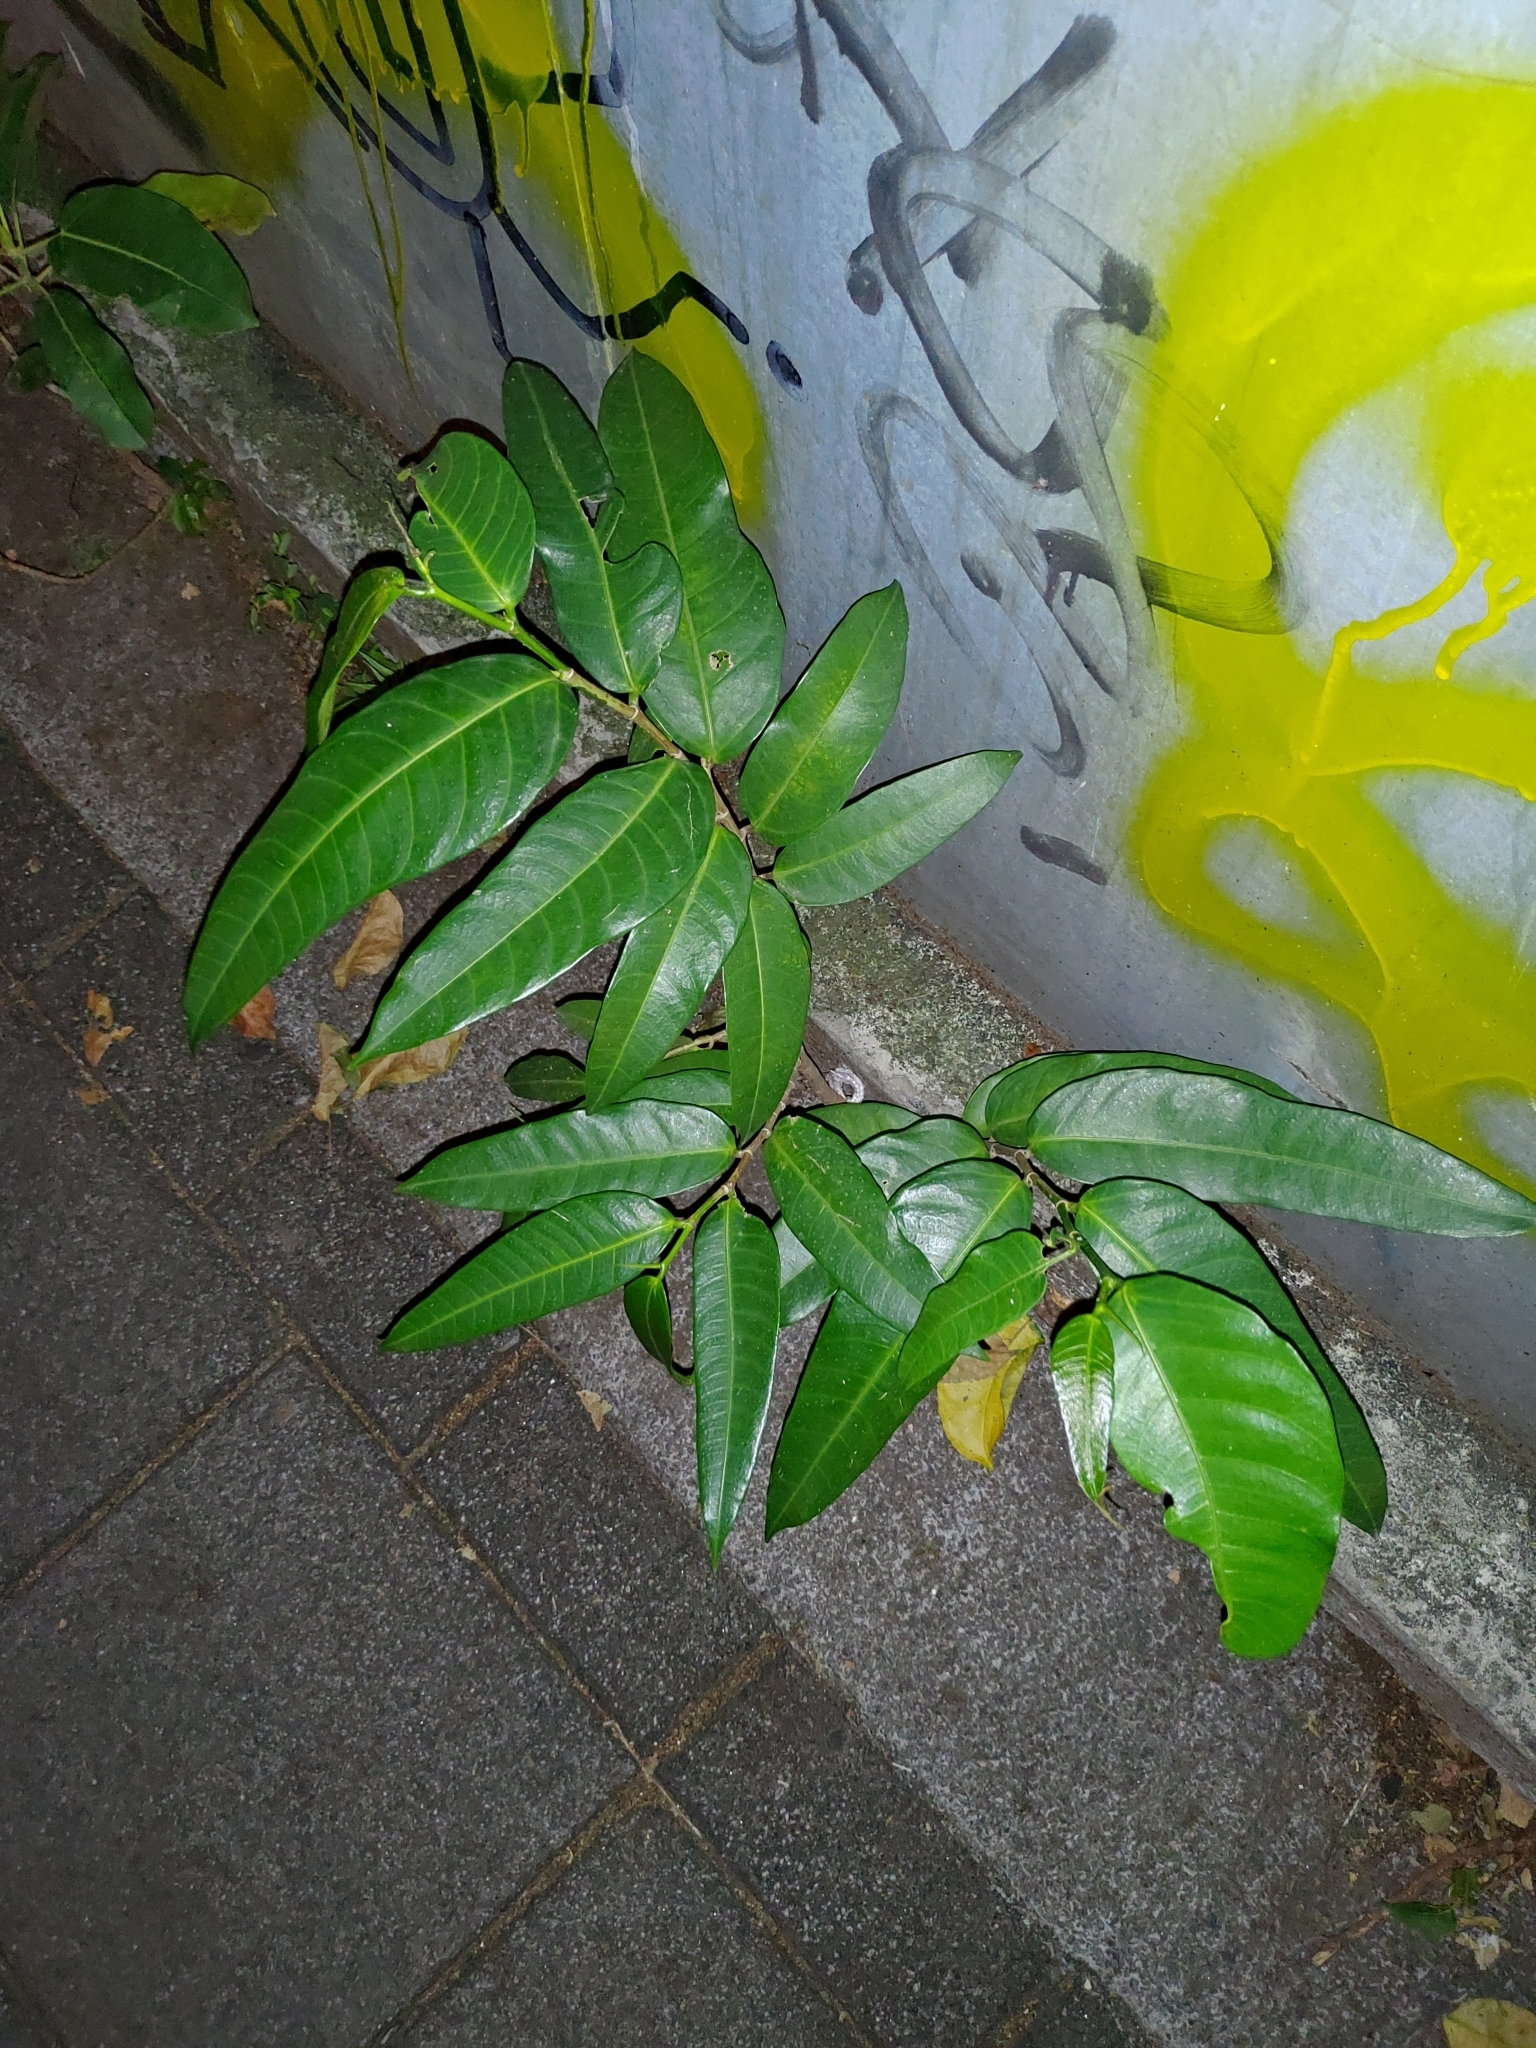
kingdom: Plantae
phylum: Tracheophyta
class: Magnoliopsida
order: Rosales
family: Moraceae
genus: Ficus
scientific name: Ficus virgata
